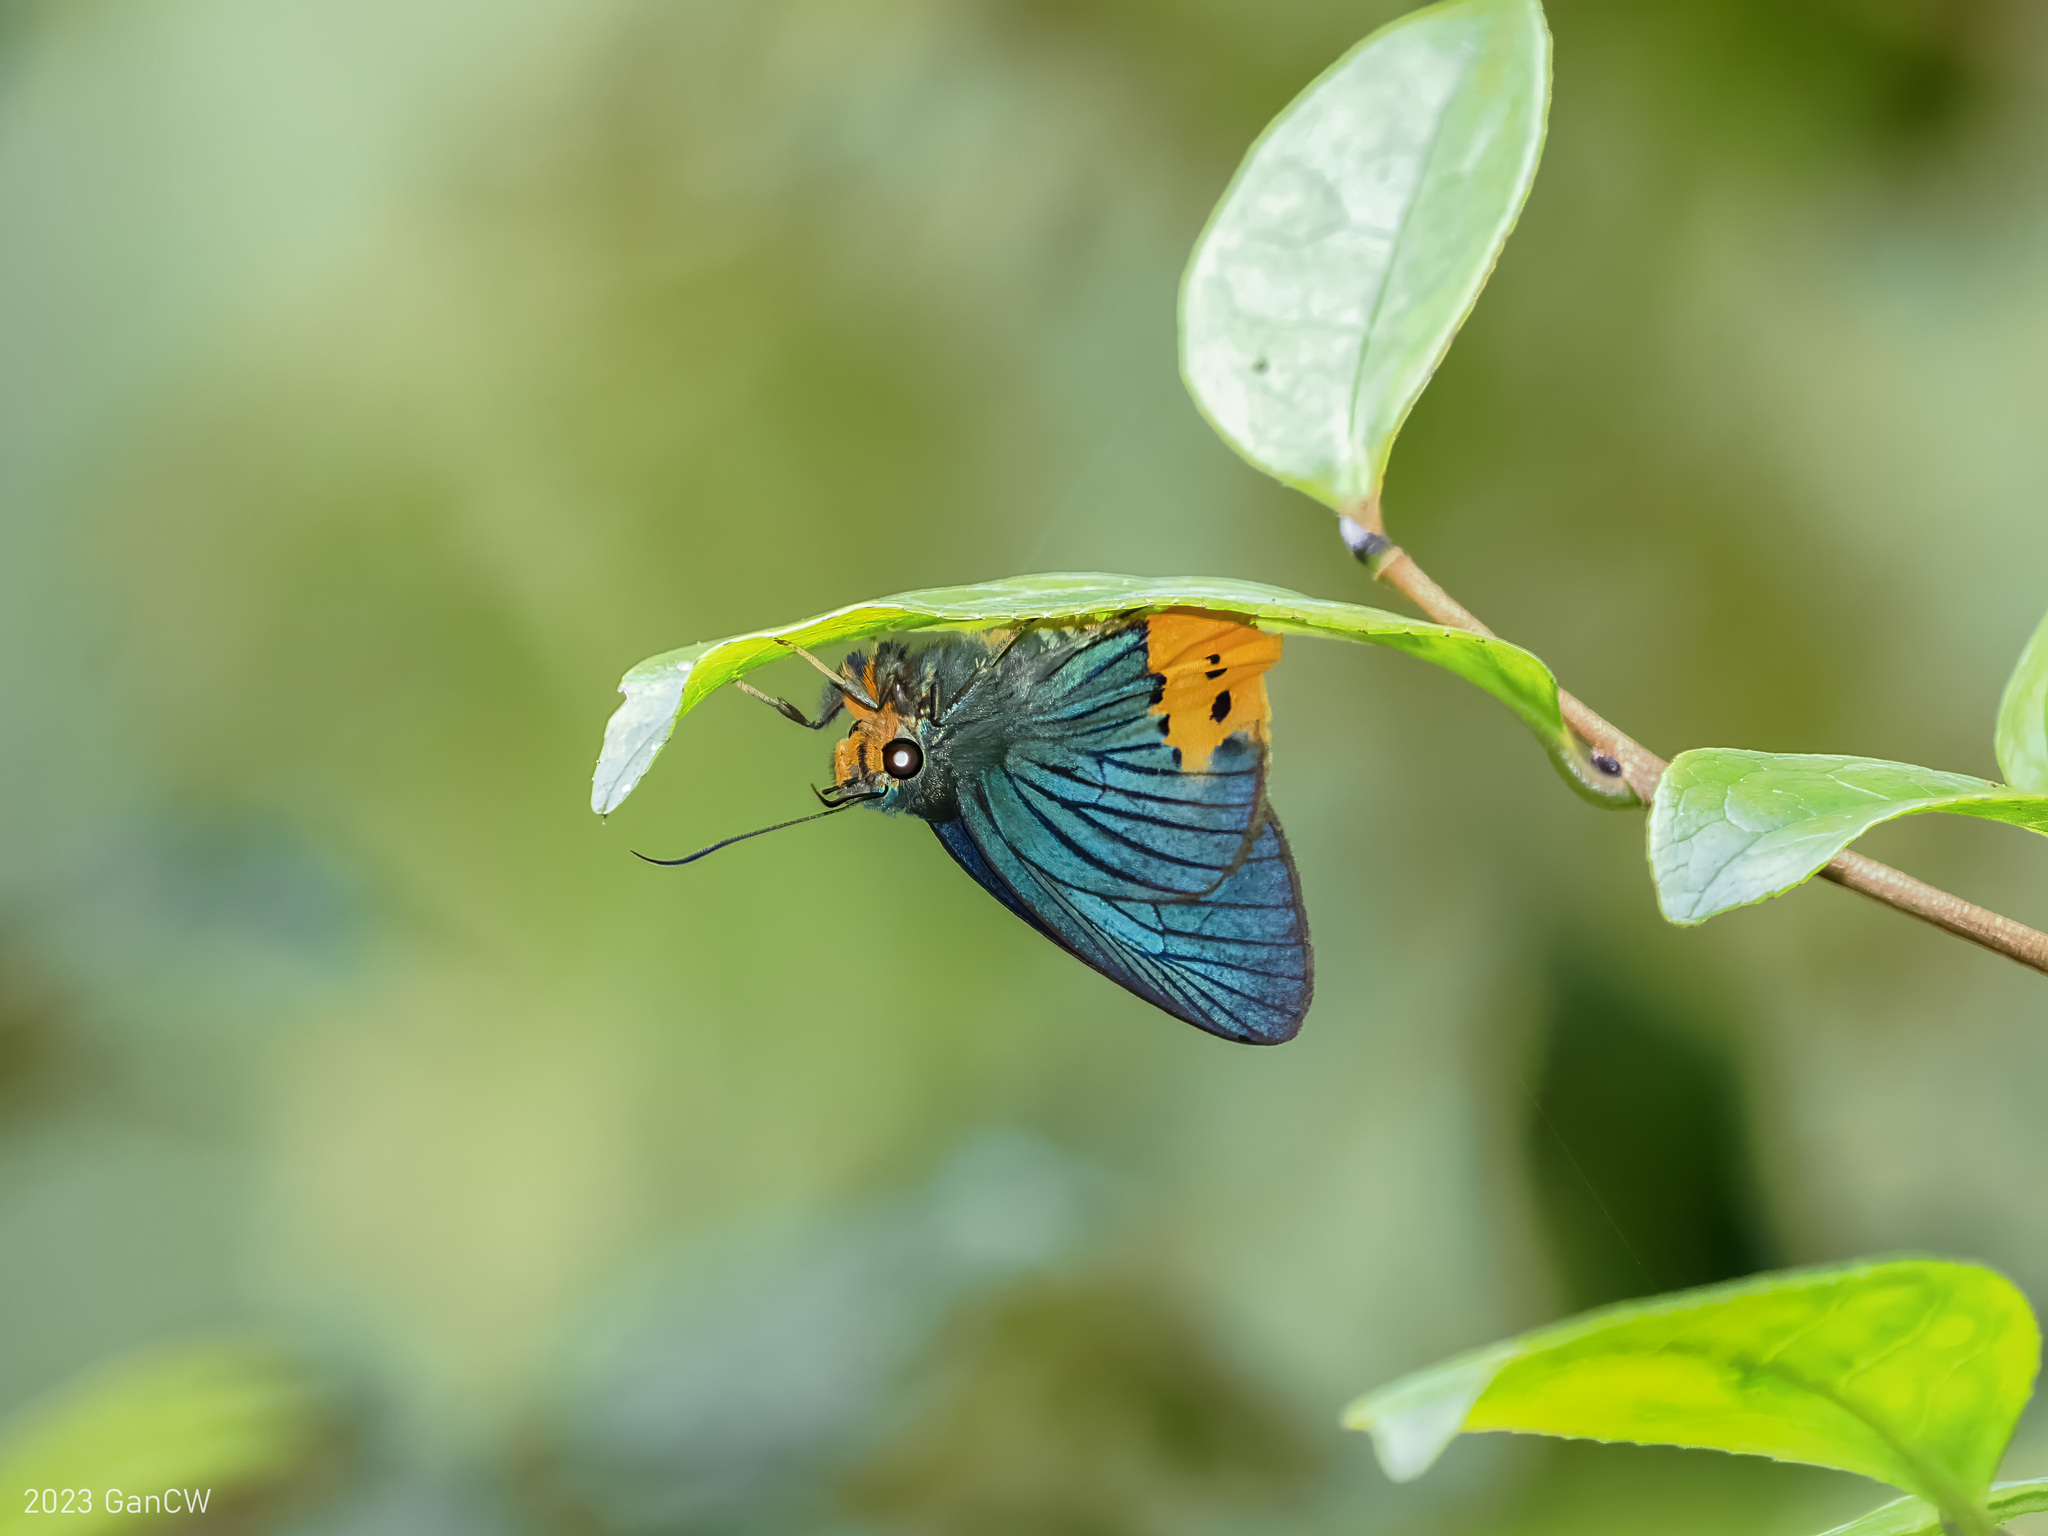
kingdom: Animalia
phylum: Arthropoda
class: Insecta
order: Lepidoptera
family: Hesperiidae
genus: Choaspes
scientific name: Choaspes plateni
